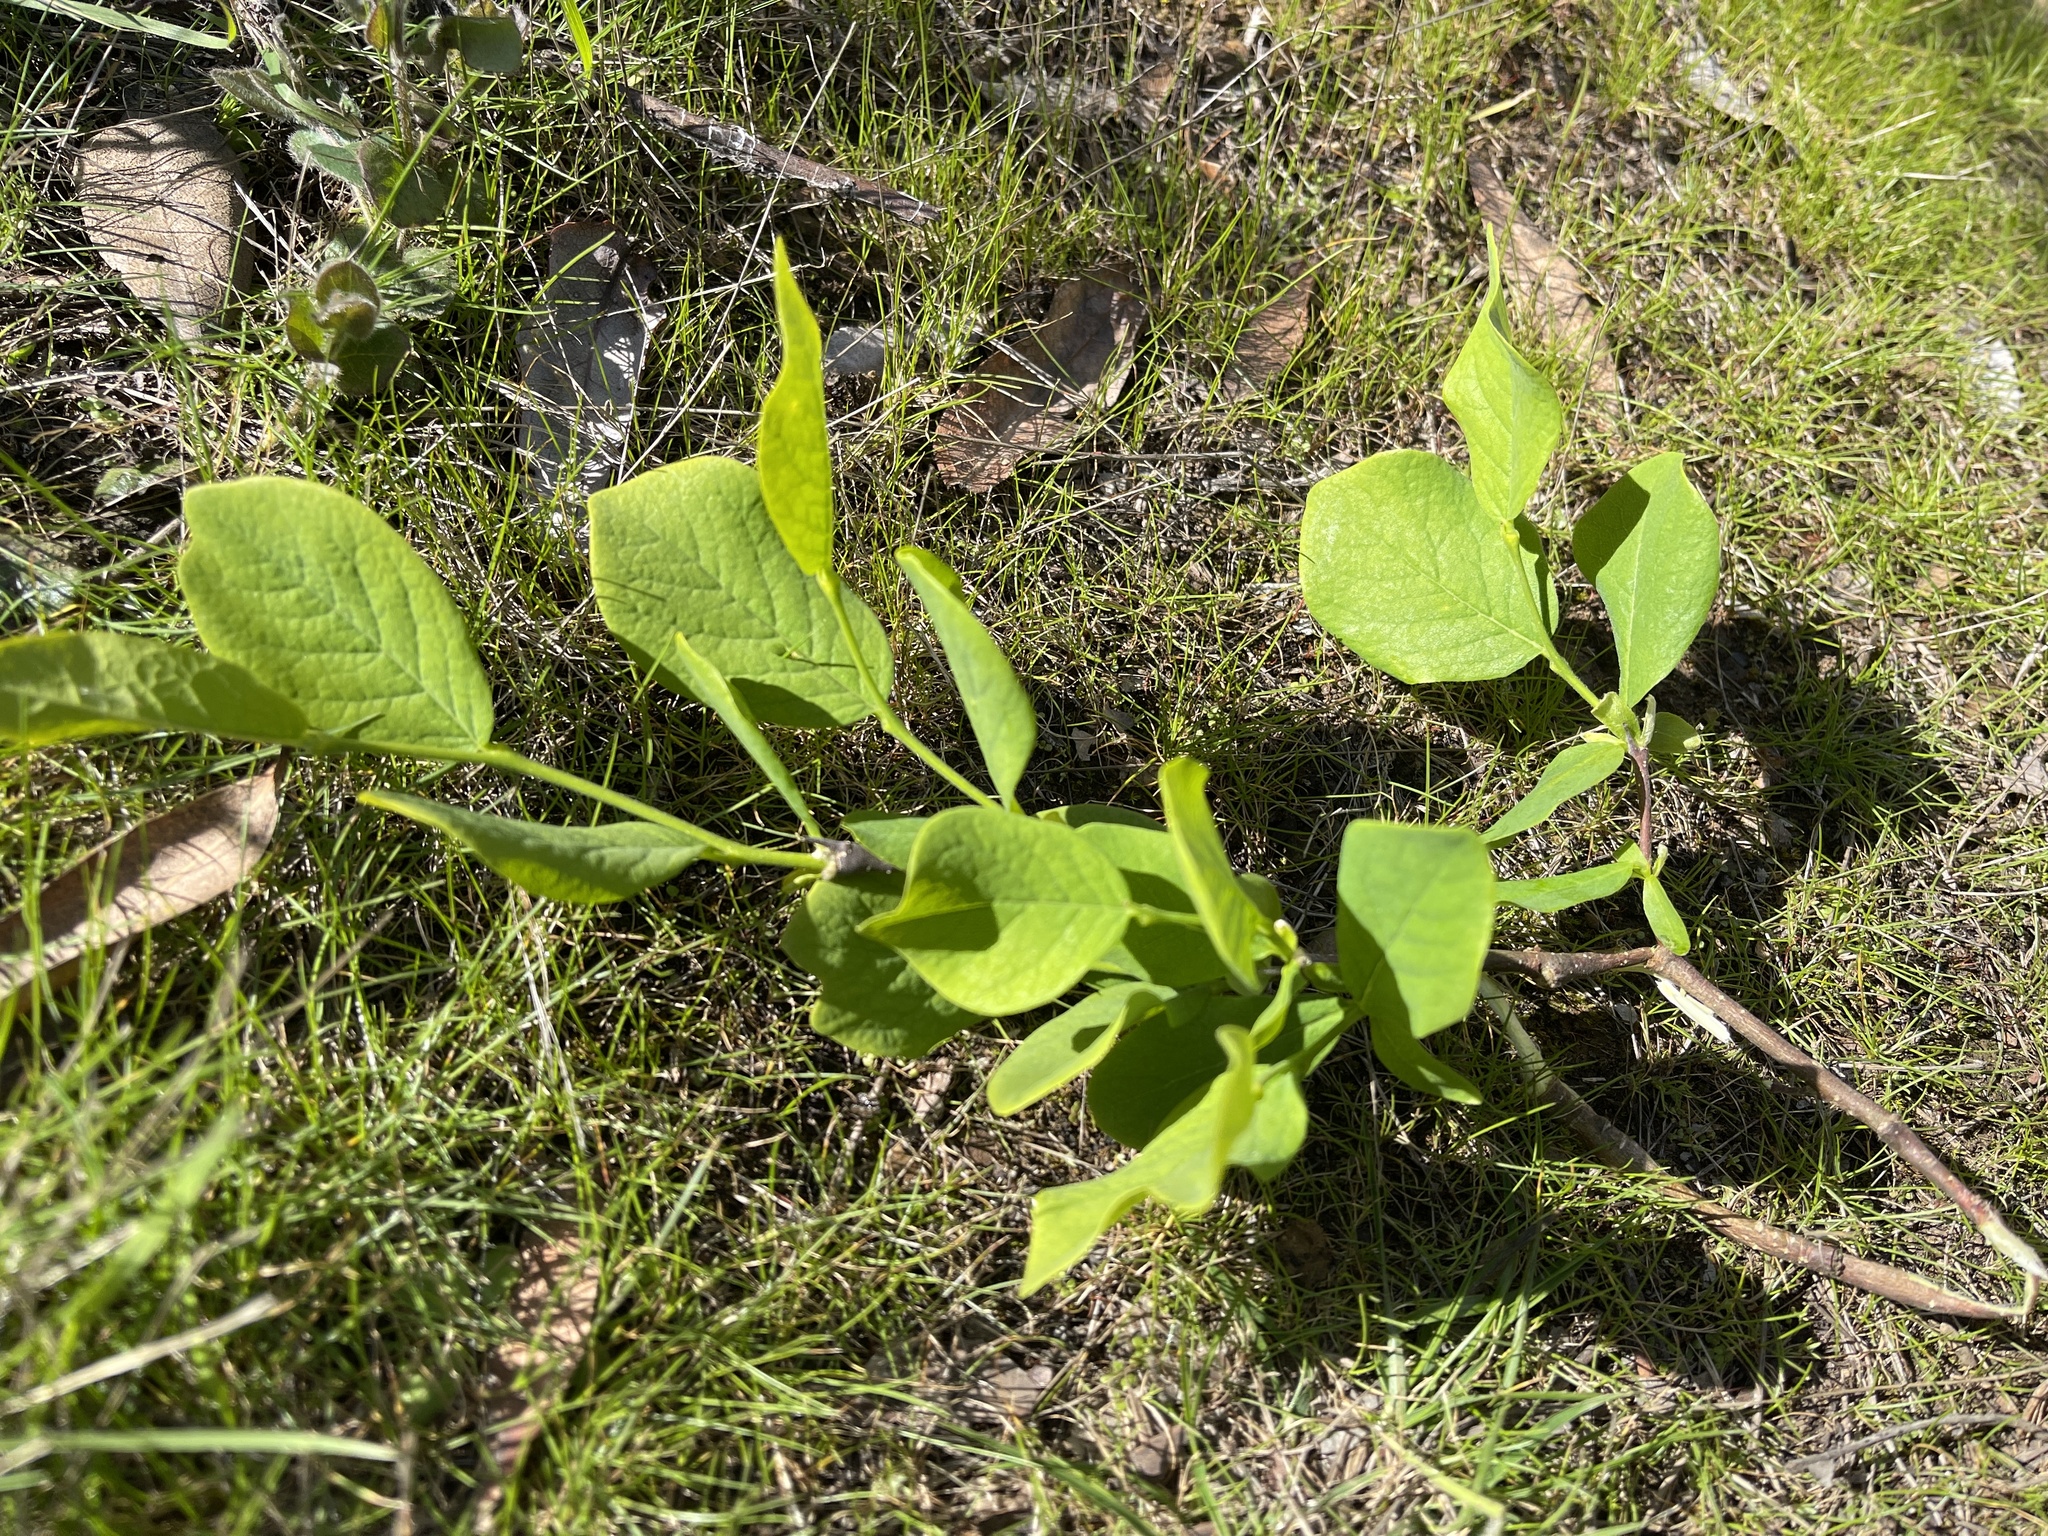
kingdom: Plantae
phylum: Tracheophyta
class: Magnoliopsida
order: Malvales
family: Thymelaeaceae
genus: Dirca
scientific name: Dirca occidentalis
